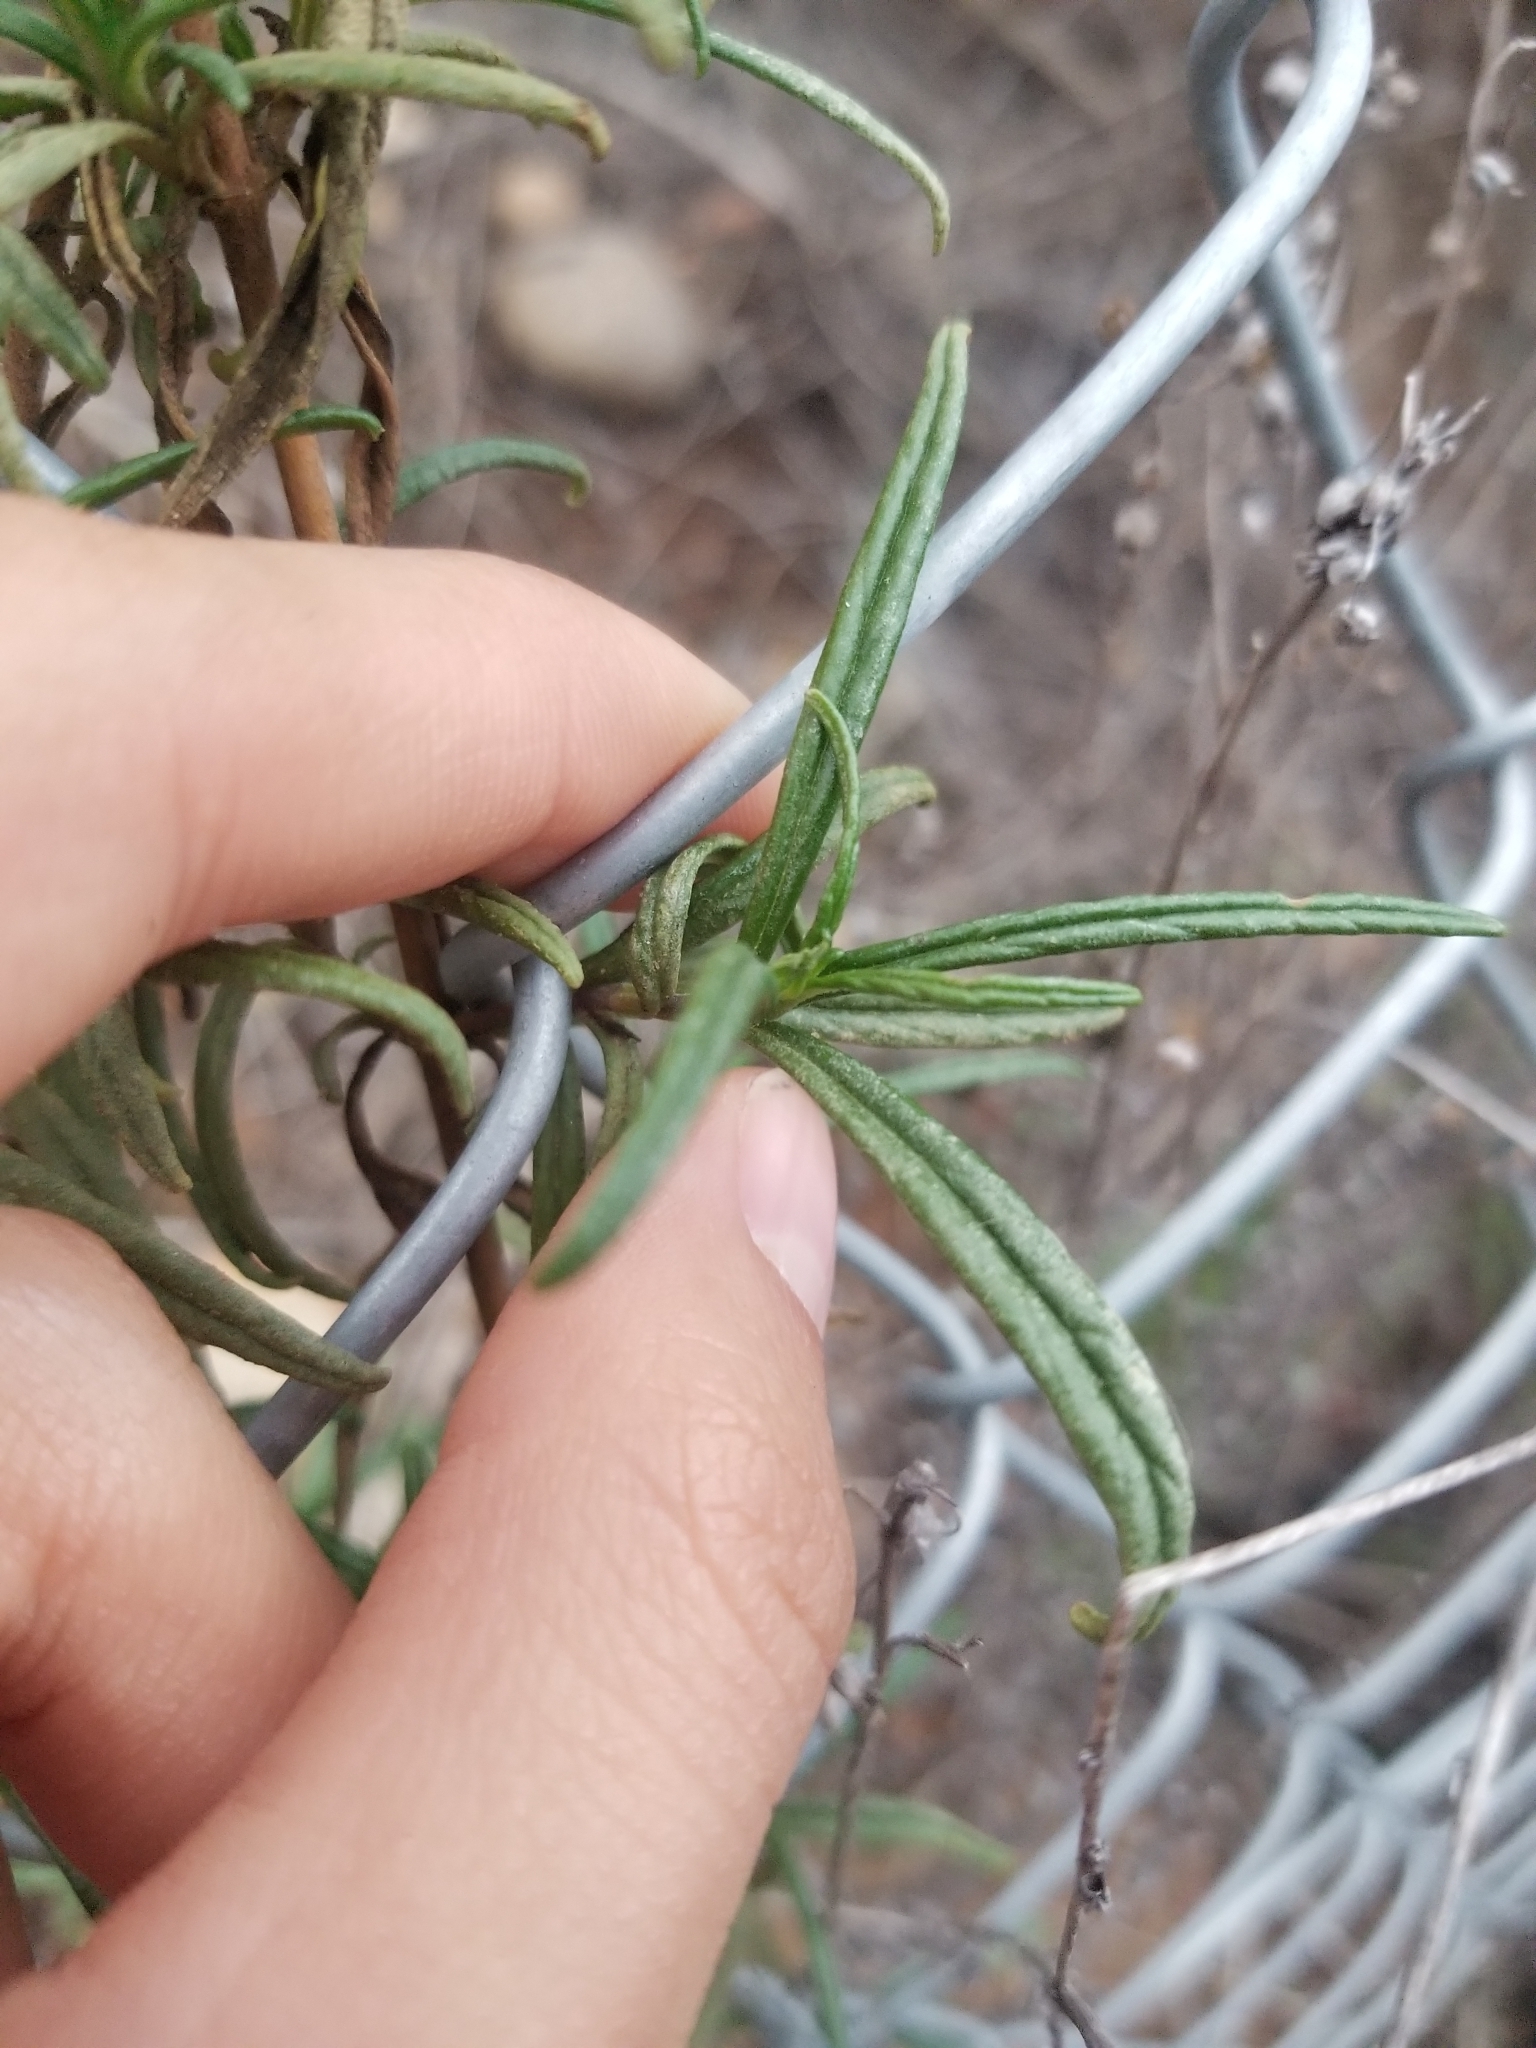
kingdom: Plantae
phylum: Tracheophyta
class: Magnoliopsida
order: Lamiales
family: Phrymaceae
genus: Diplacus
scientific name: Diplacus australis
